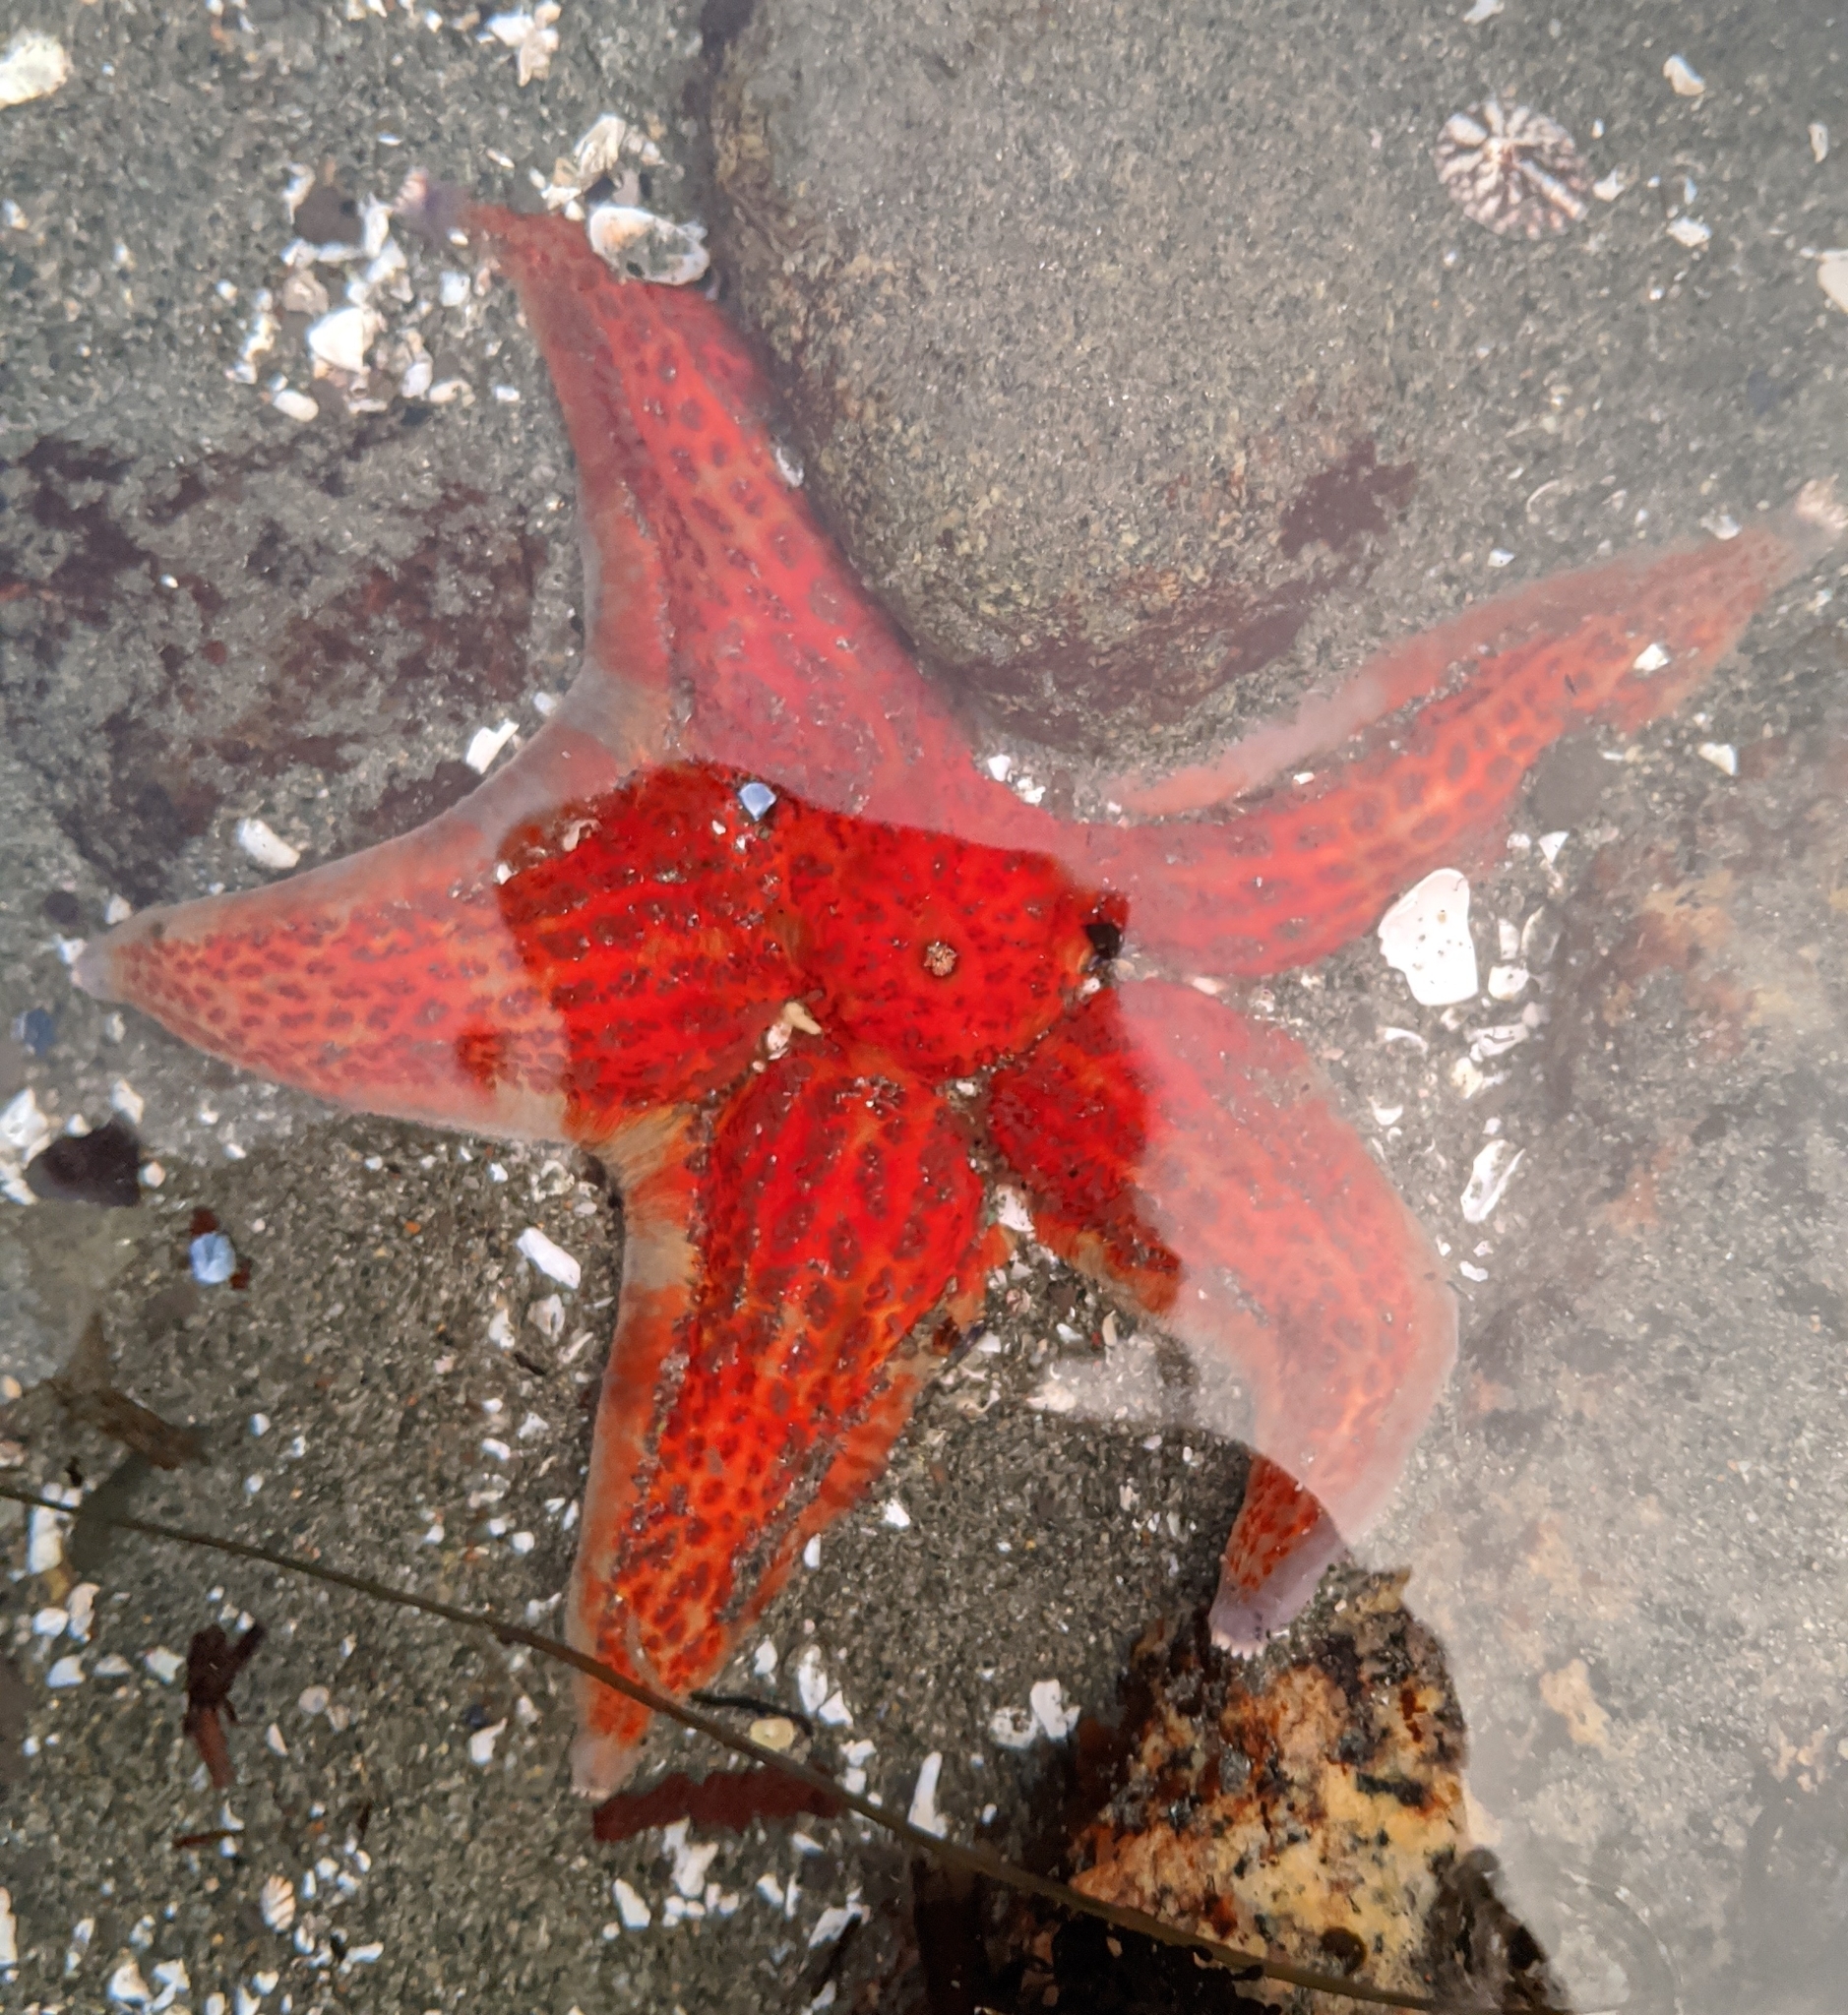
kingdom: Animalia
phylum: Echinodermata
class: Asteroidea
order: Valvatida
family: Asteropseidae
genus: Dermasterias
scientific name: Dermasterias imbricata
